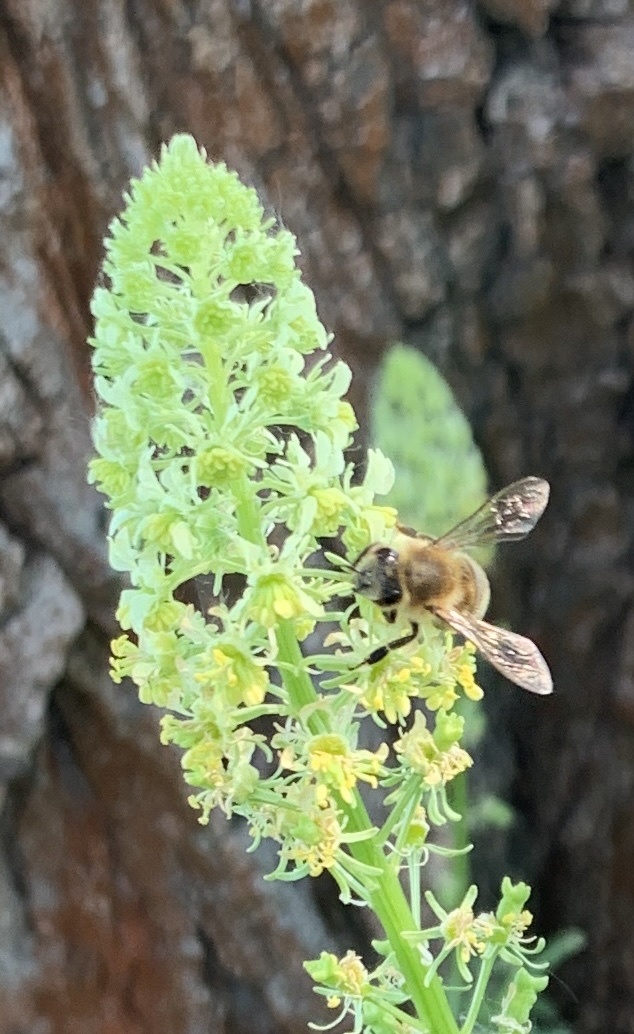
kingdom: Animalia
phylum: Arthropoda
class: Insecta
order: Hymenoptera
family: Apidae
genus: Apis
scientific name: Apis mellifera
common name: Honey bee
